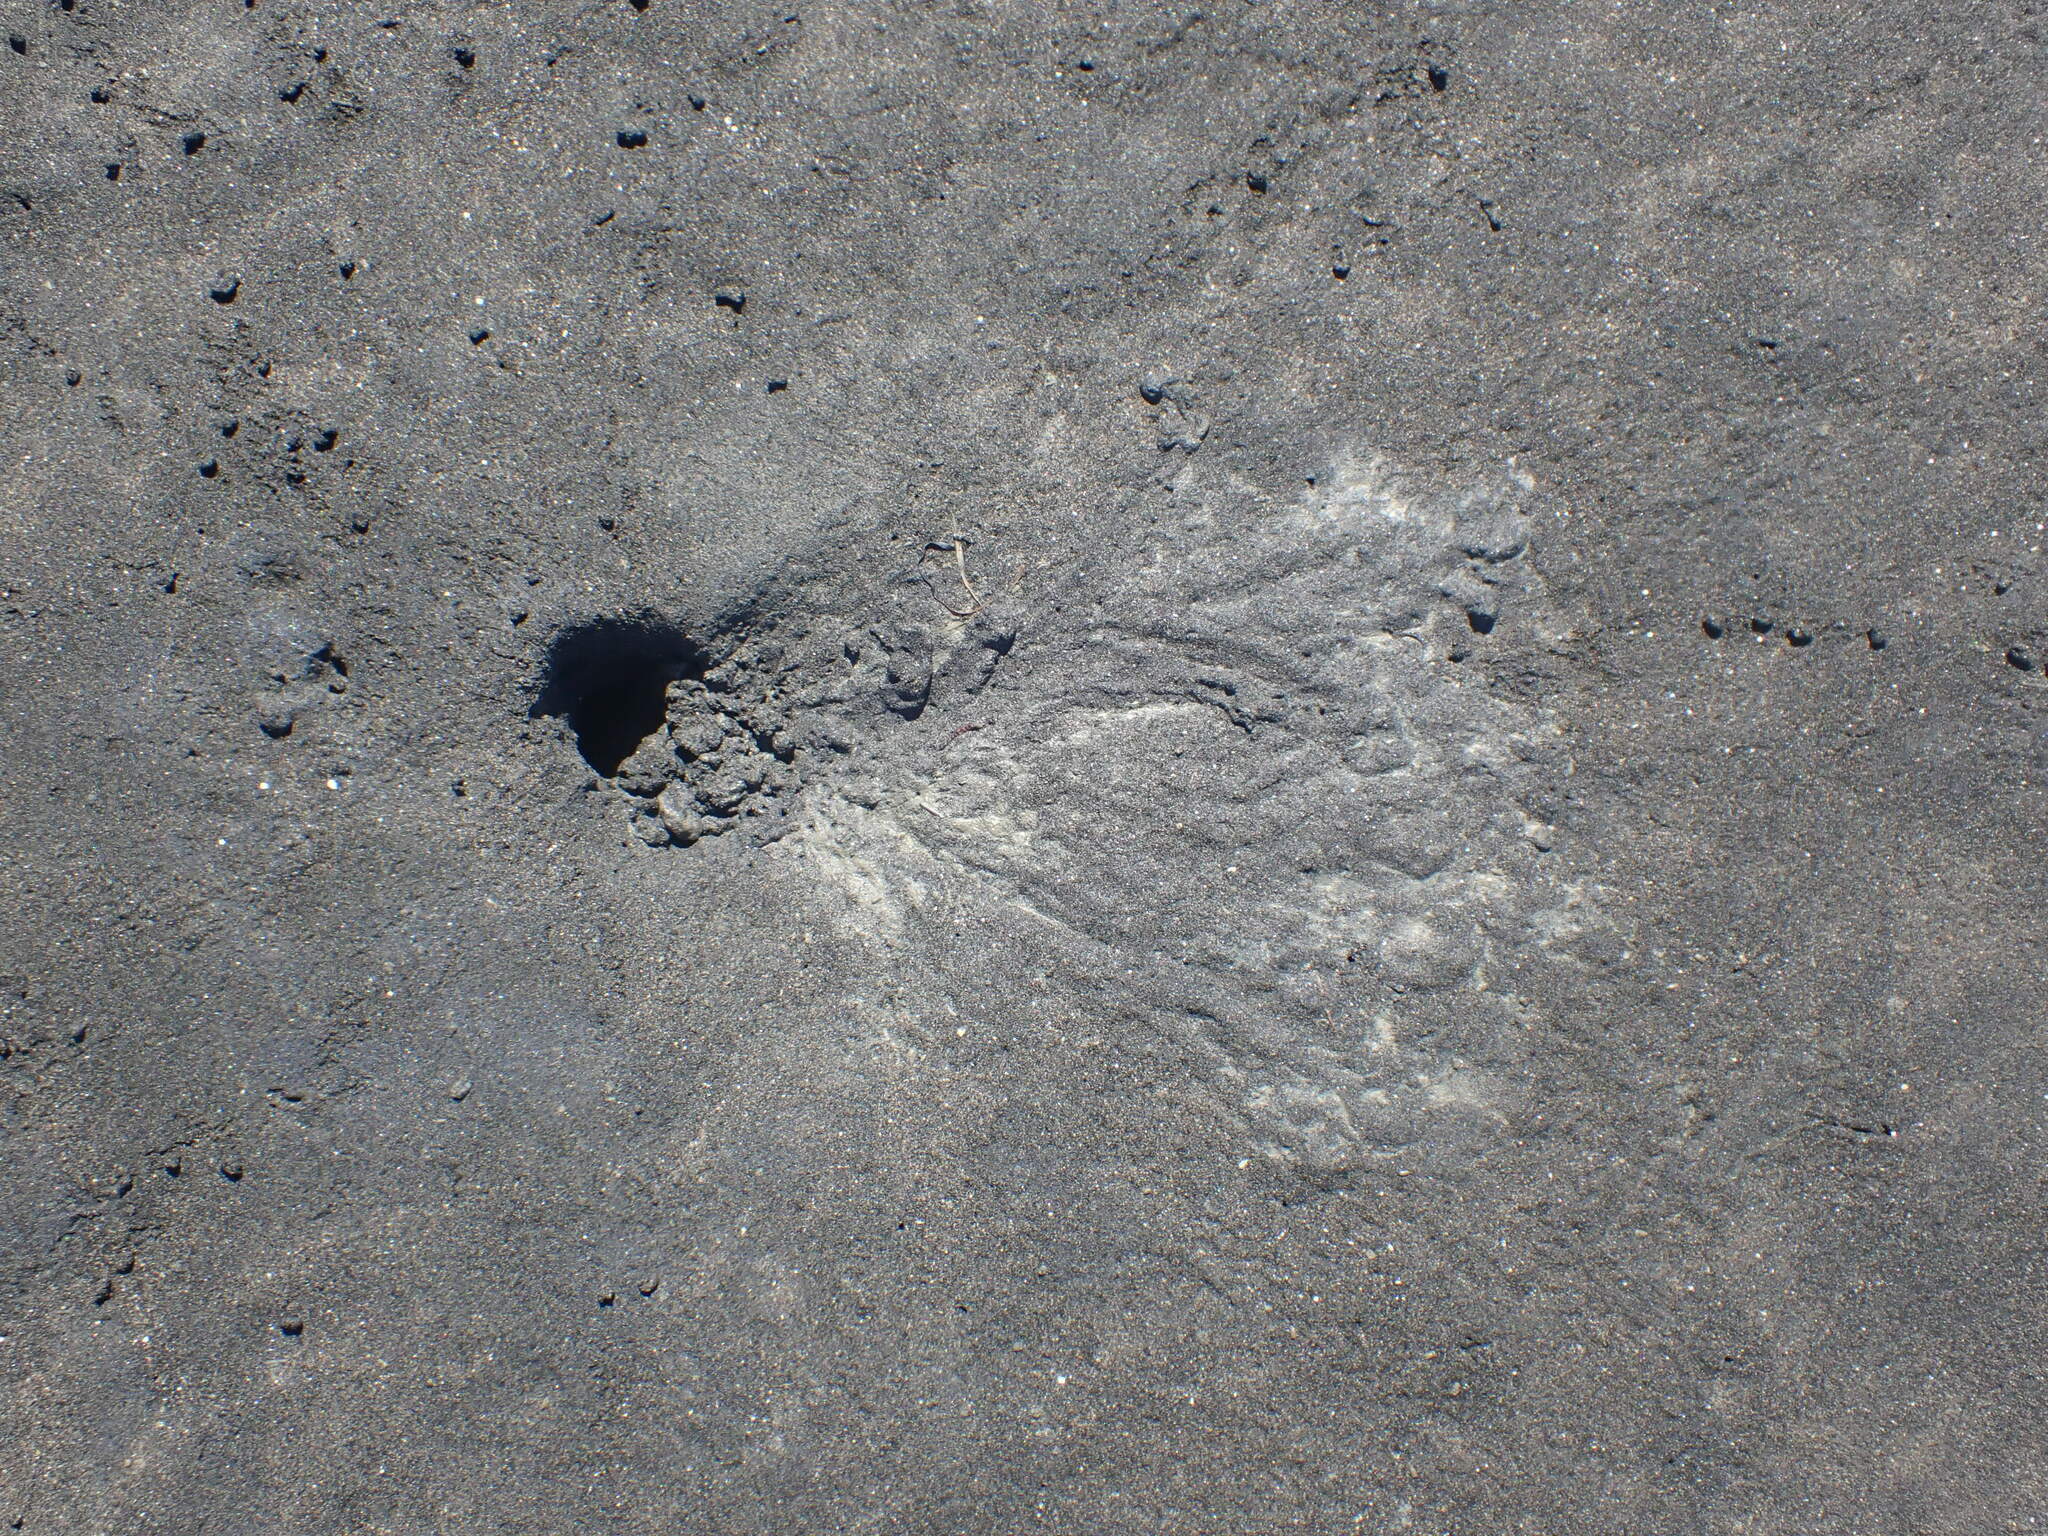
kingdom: Animalia
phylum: Arthropoda
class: Malacostraca
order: Decapoda
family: Varunidae
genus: Austrohelice
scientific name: Austrohelice crassa
